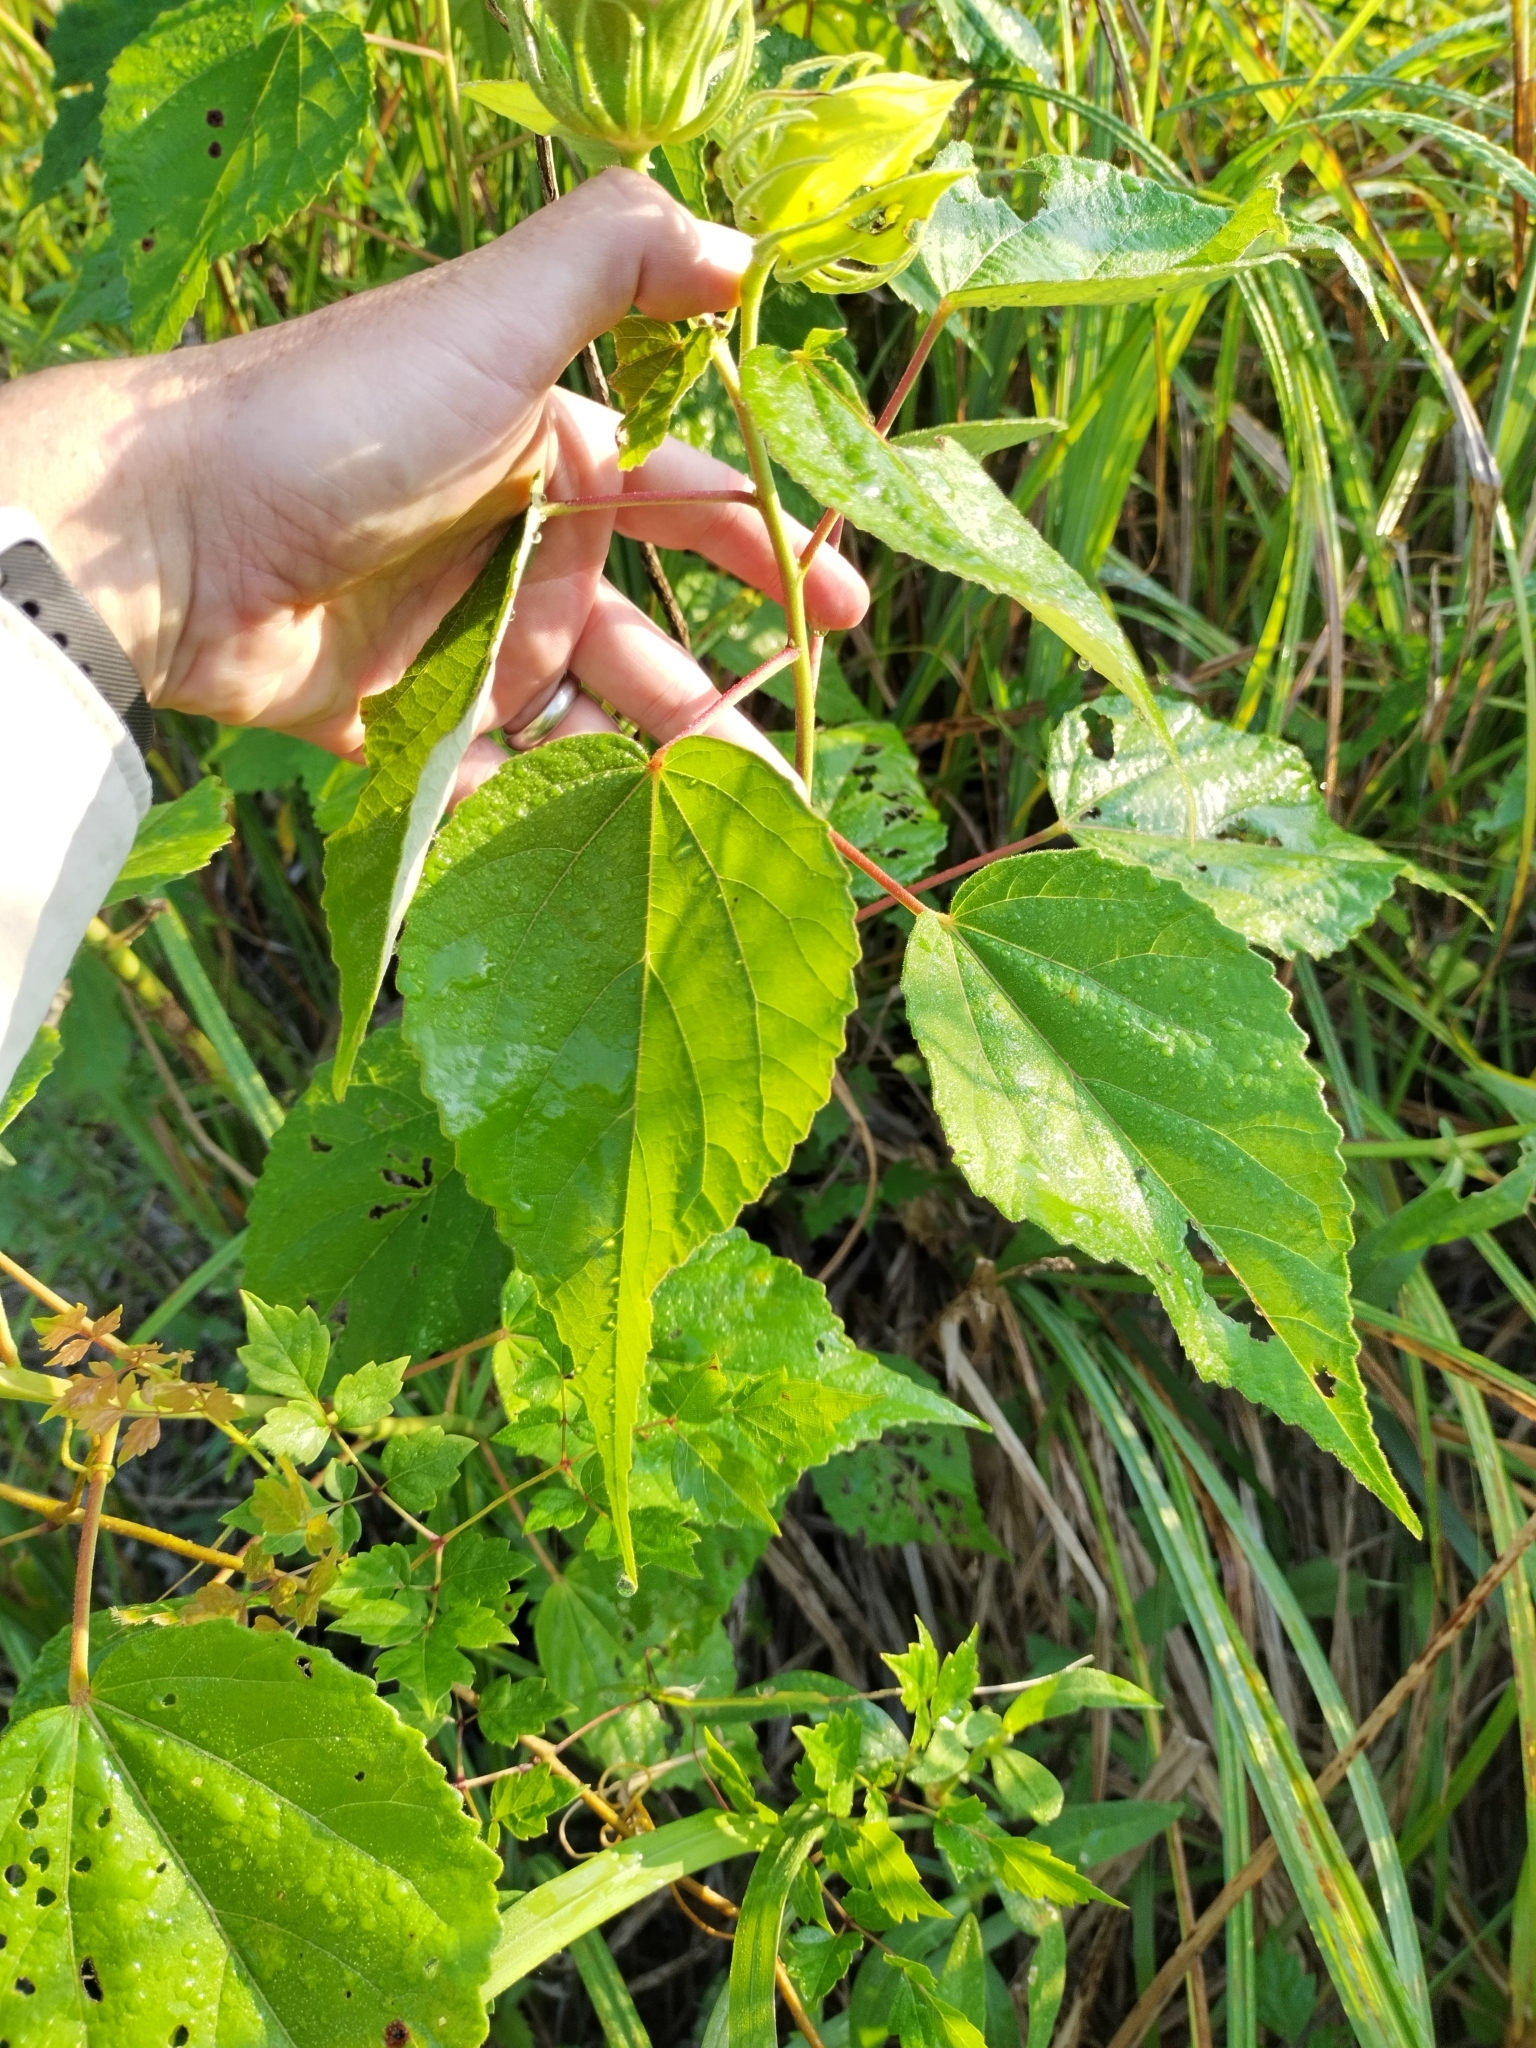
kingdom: Plantae
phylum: Tracheophyta
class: Magnoliopsida
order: Malvales
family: Malvaceae
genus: Hibiscus
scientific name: Hibiscus moscheutos
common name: Common rose-mallow
